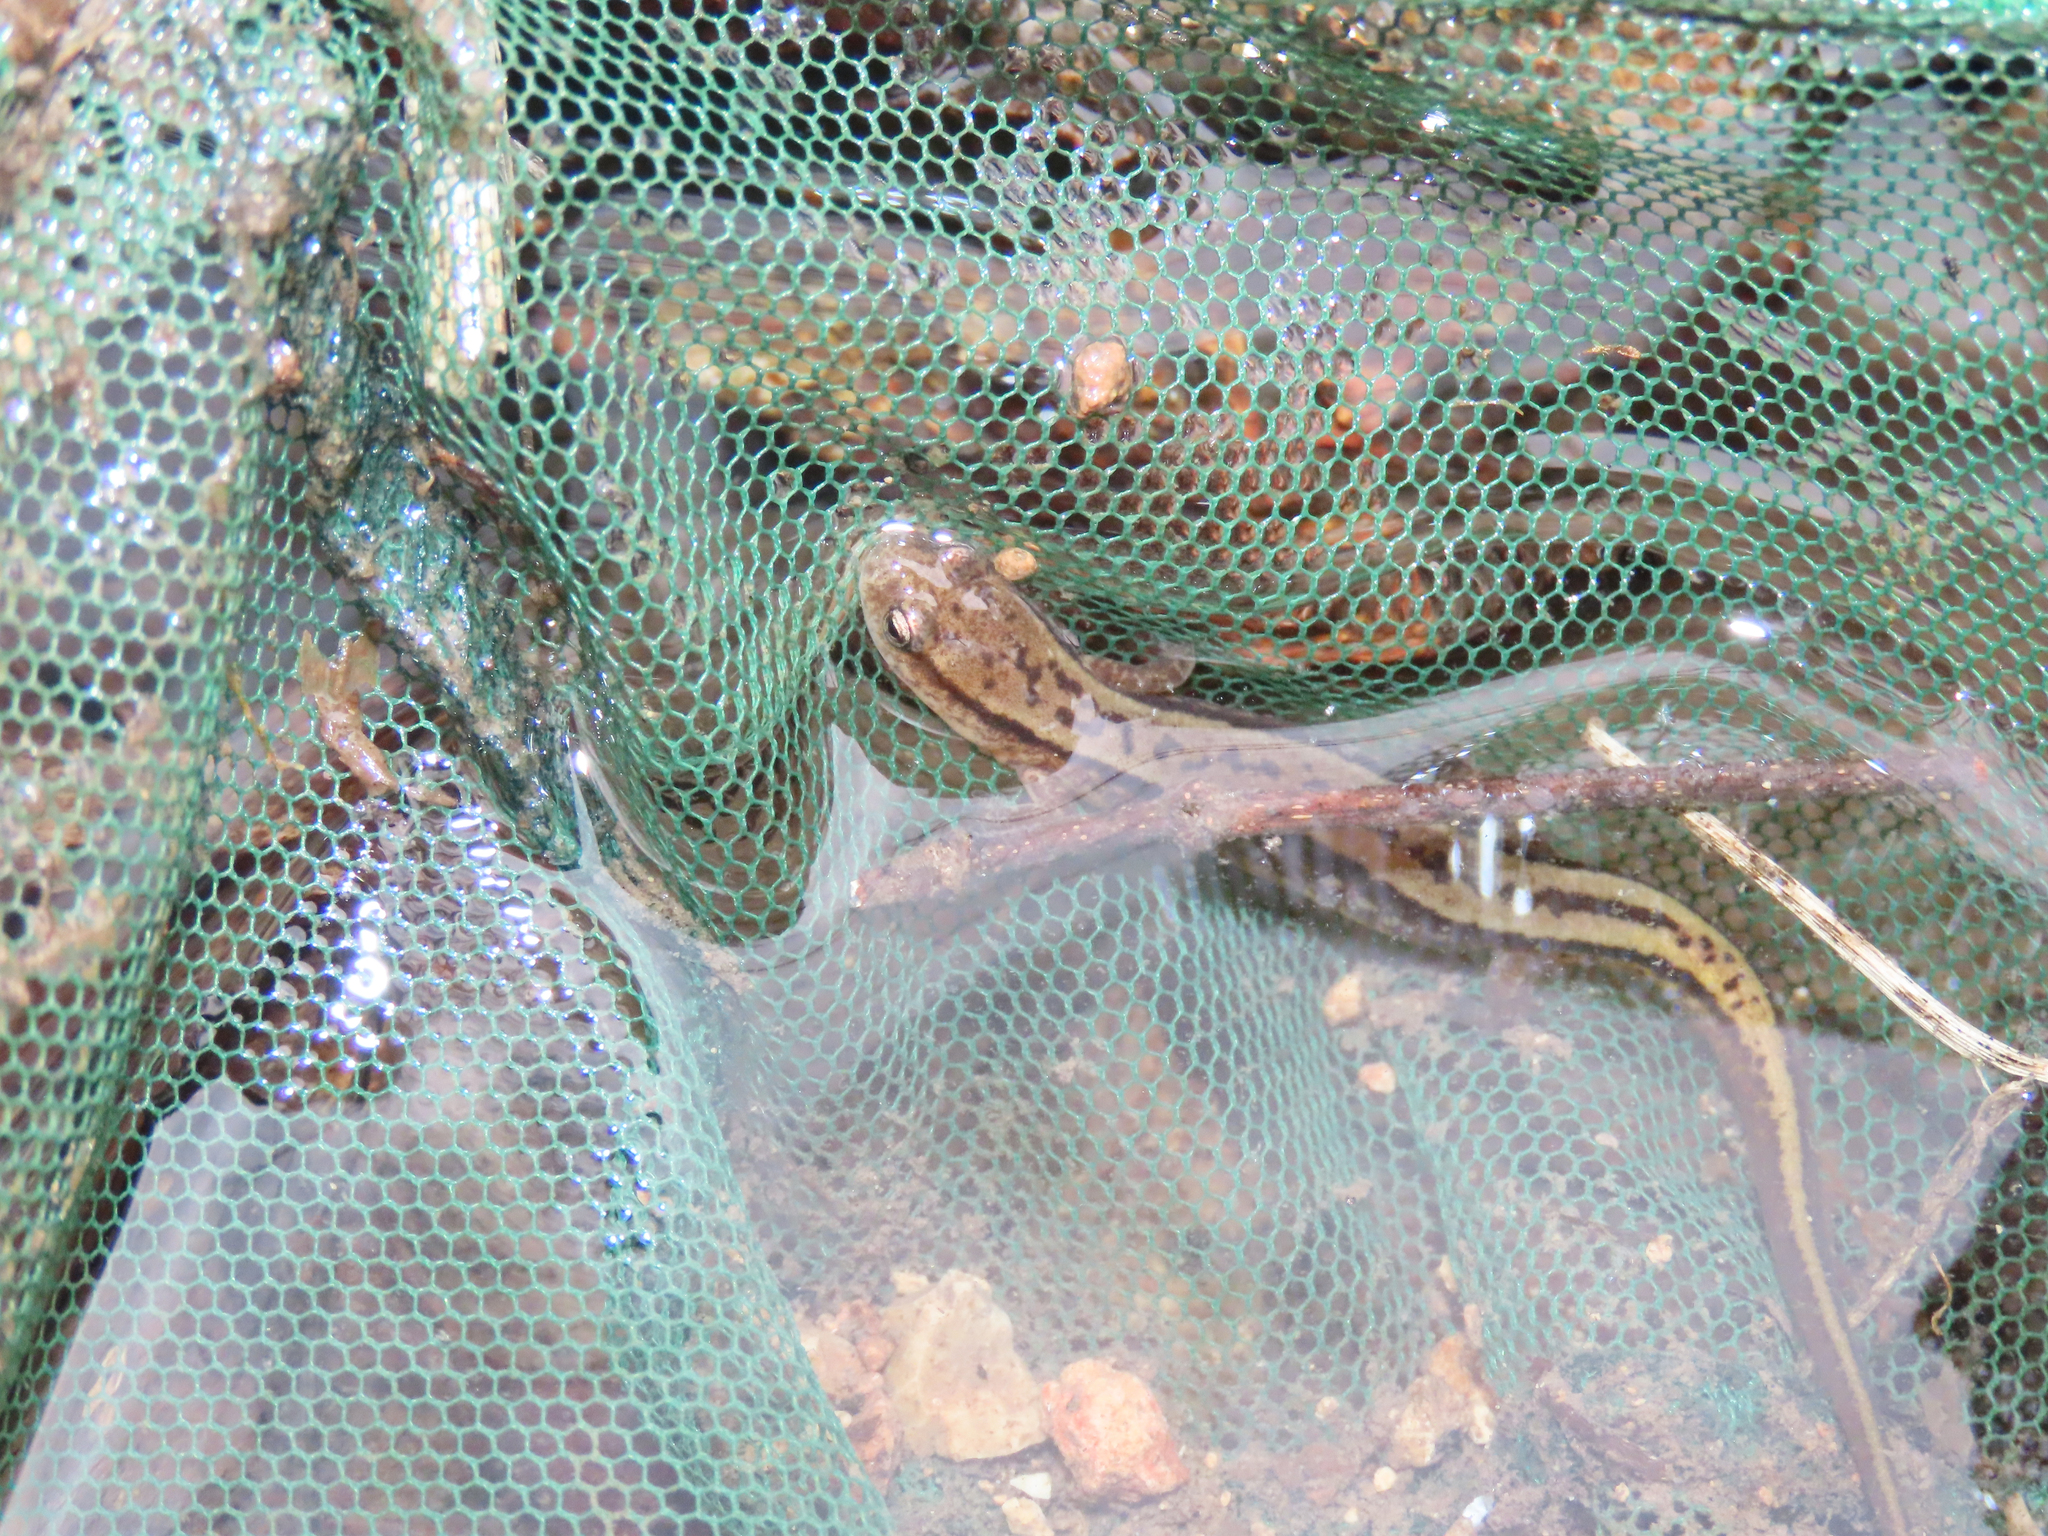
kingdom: Animalia
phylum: Chordata
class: Amphibia
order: Caudata
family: Plethodontidae
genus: Eurycea
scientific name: Eurycea cirrigera
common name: Southern two-lined salamander
